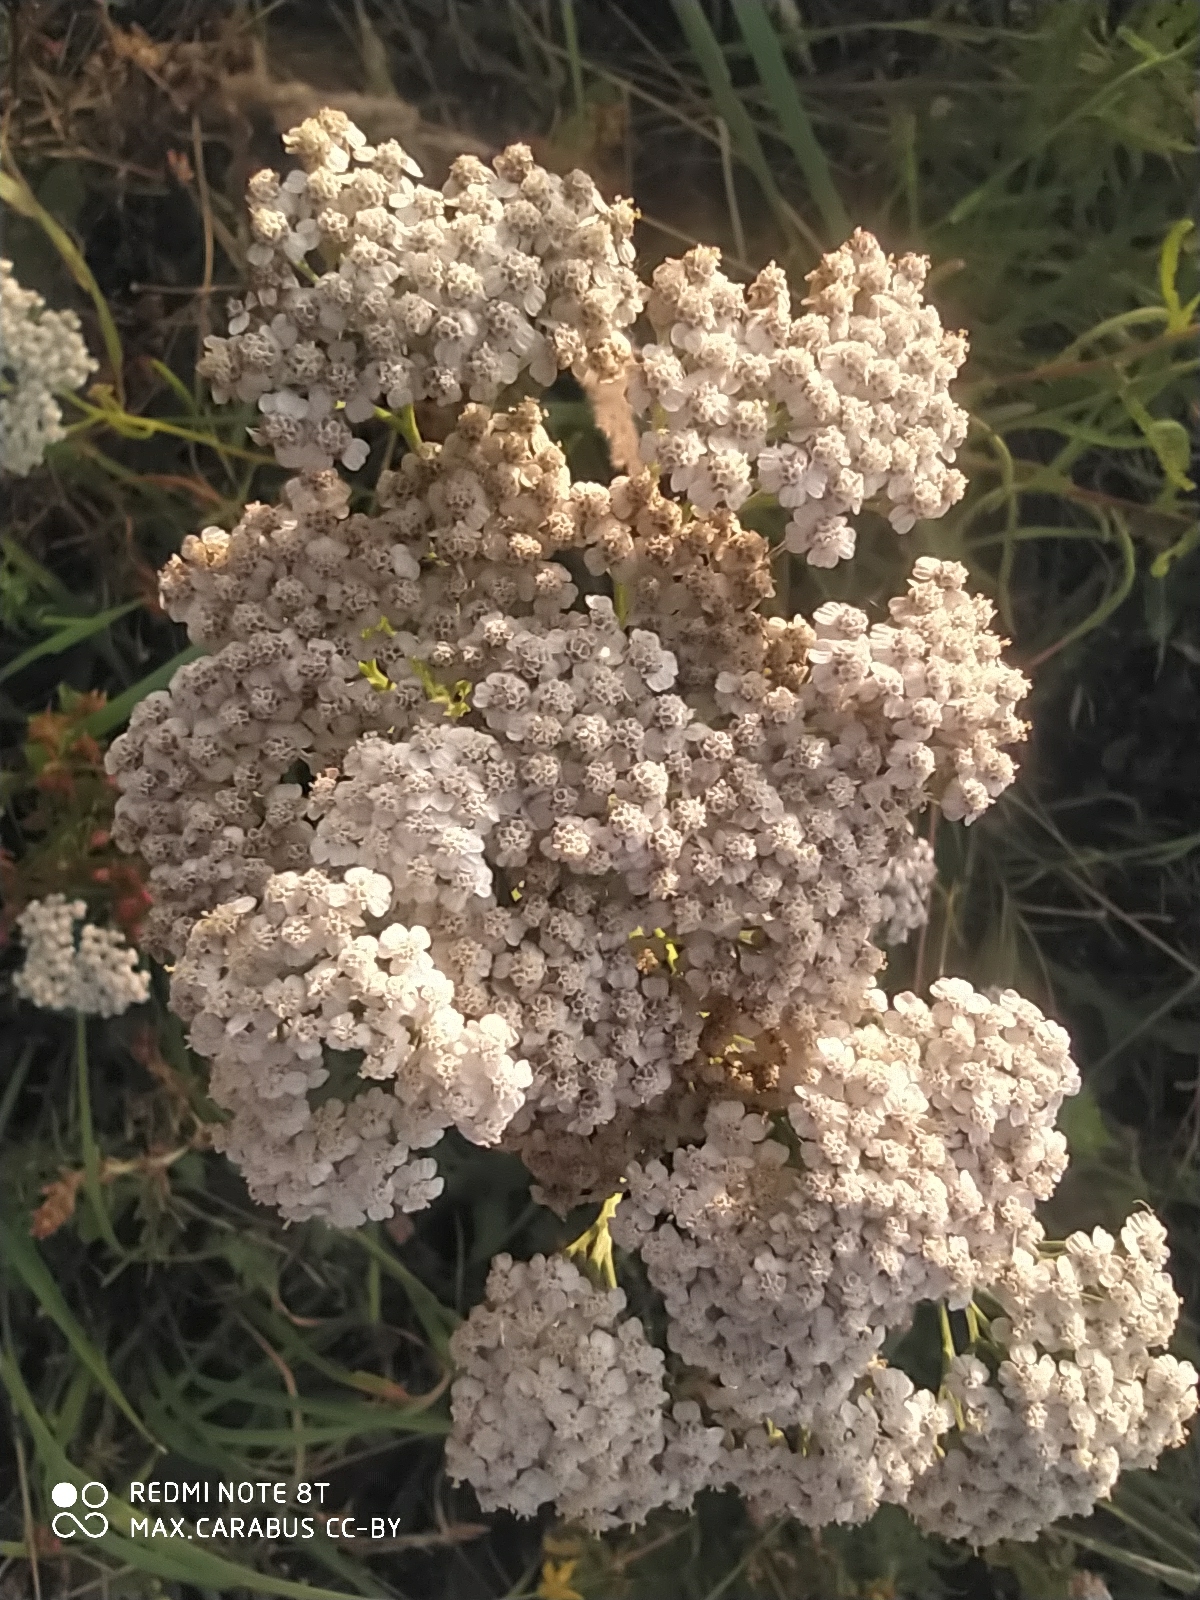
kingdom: Plantae
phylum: Tracheophyta
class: Magnoliopsida
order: Asterales
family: Asteraceae
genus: Achillea
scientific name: Achillea millefolium
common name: Yarrow
